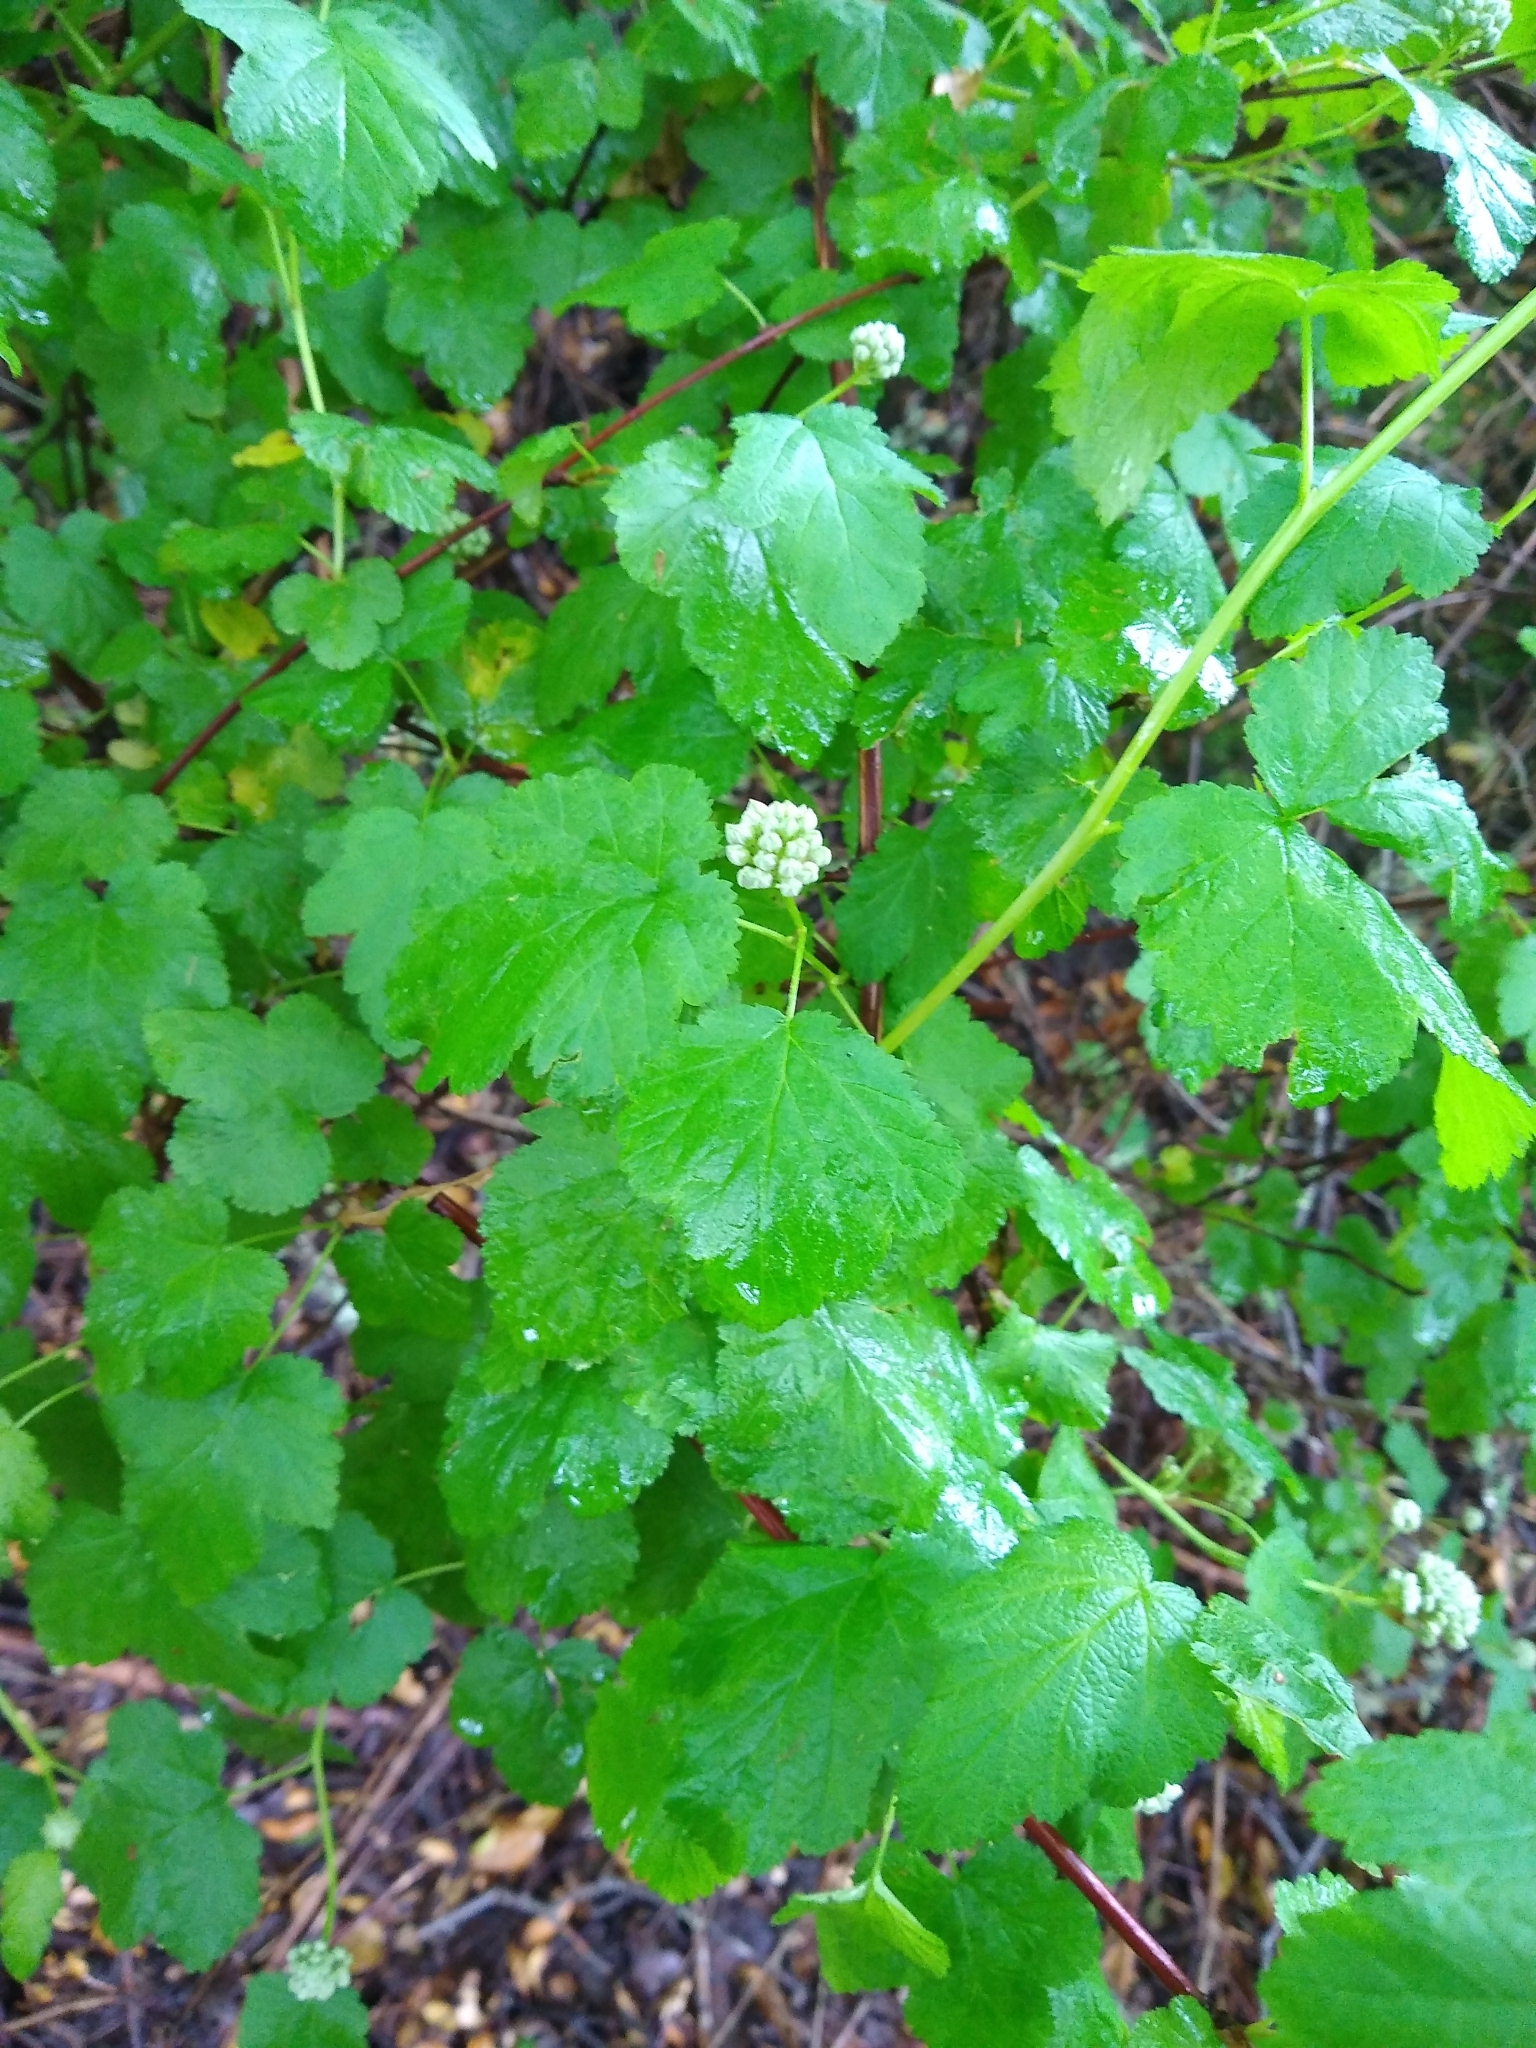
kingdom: Plantae
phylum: Tracheophyta
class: Magnoliopsida
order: Rosales
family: Rosaceae
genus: Physocarpus
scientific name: Physocarpus capitatus
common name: Pacific ninebark
